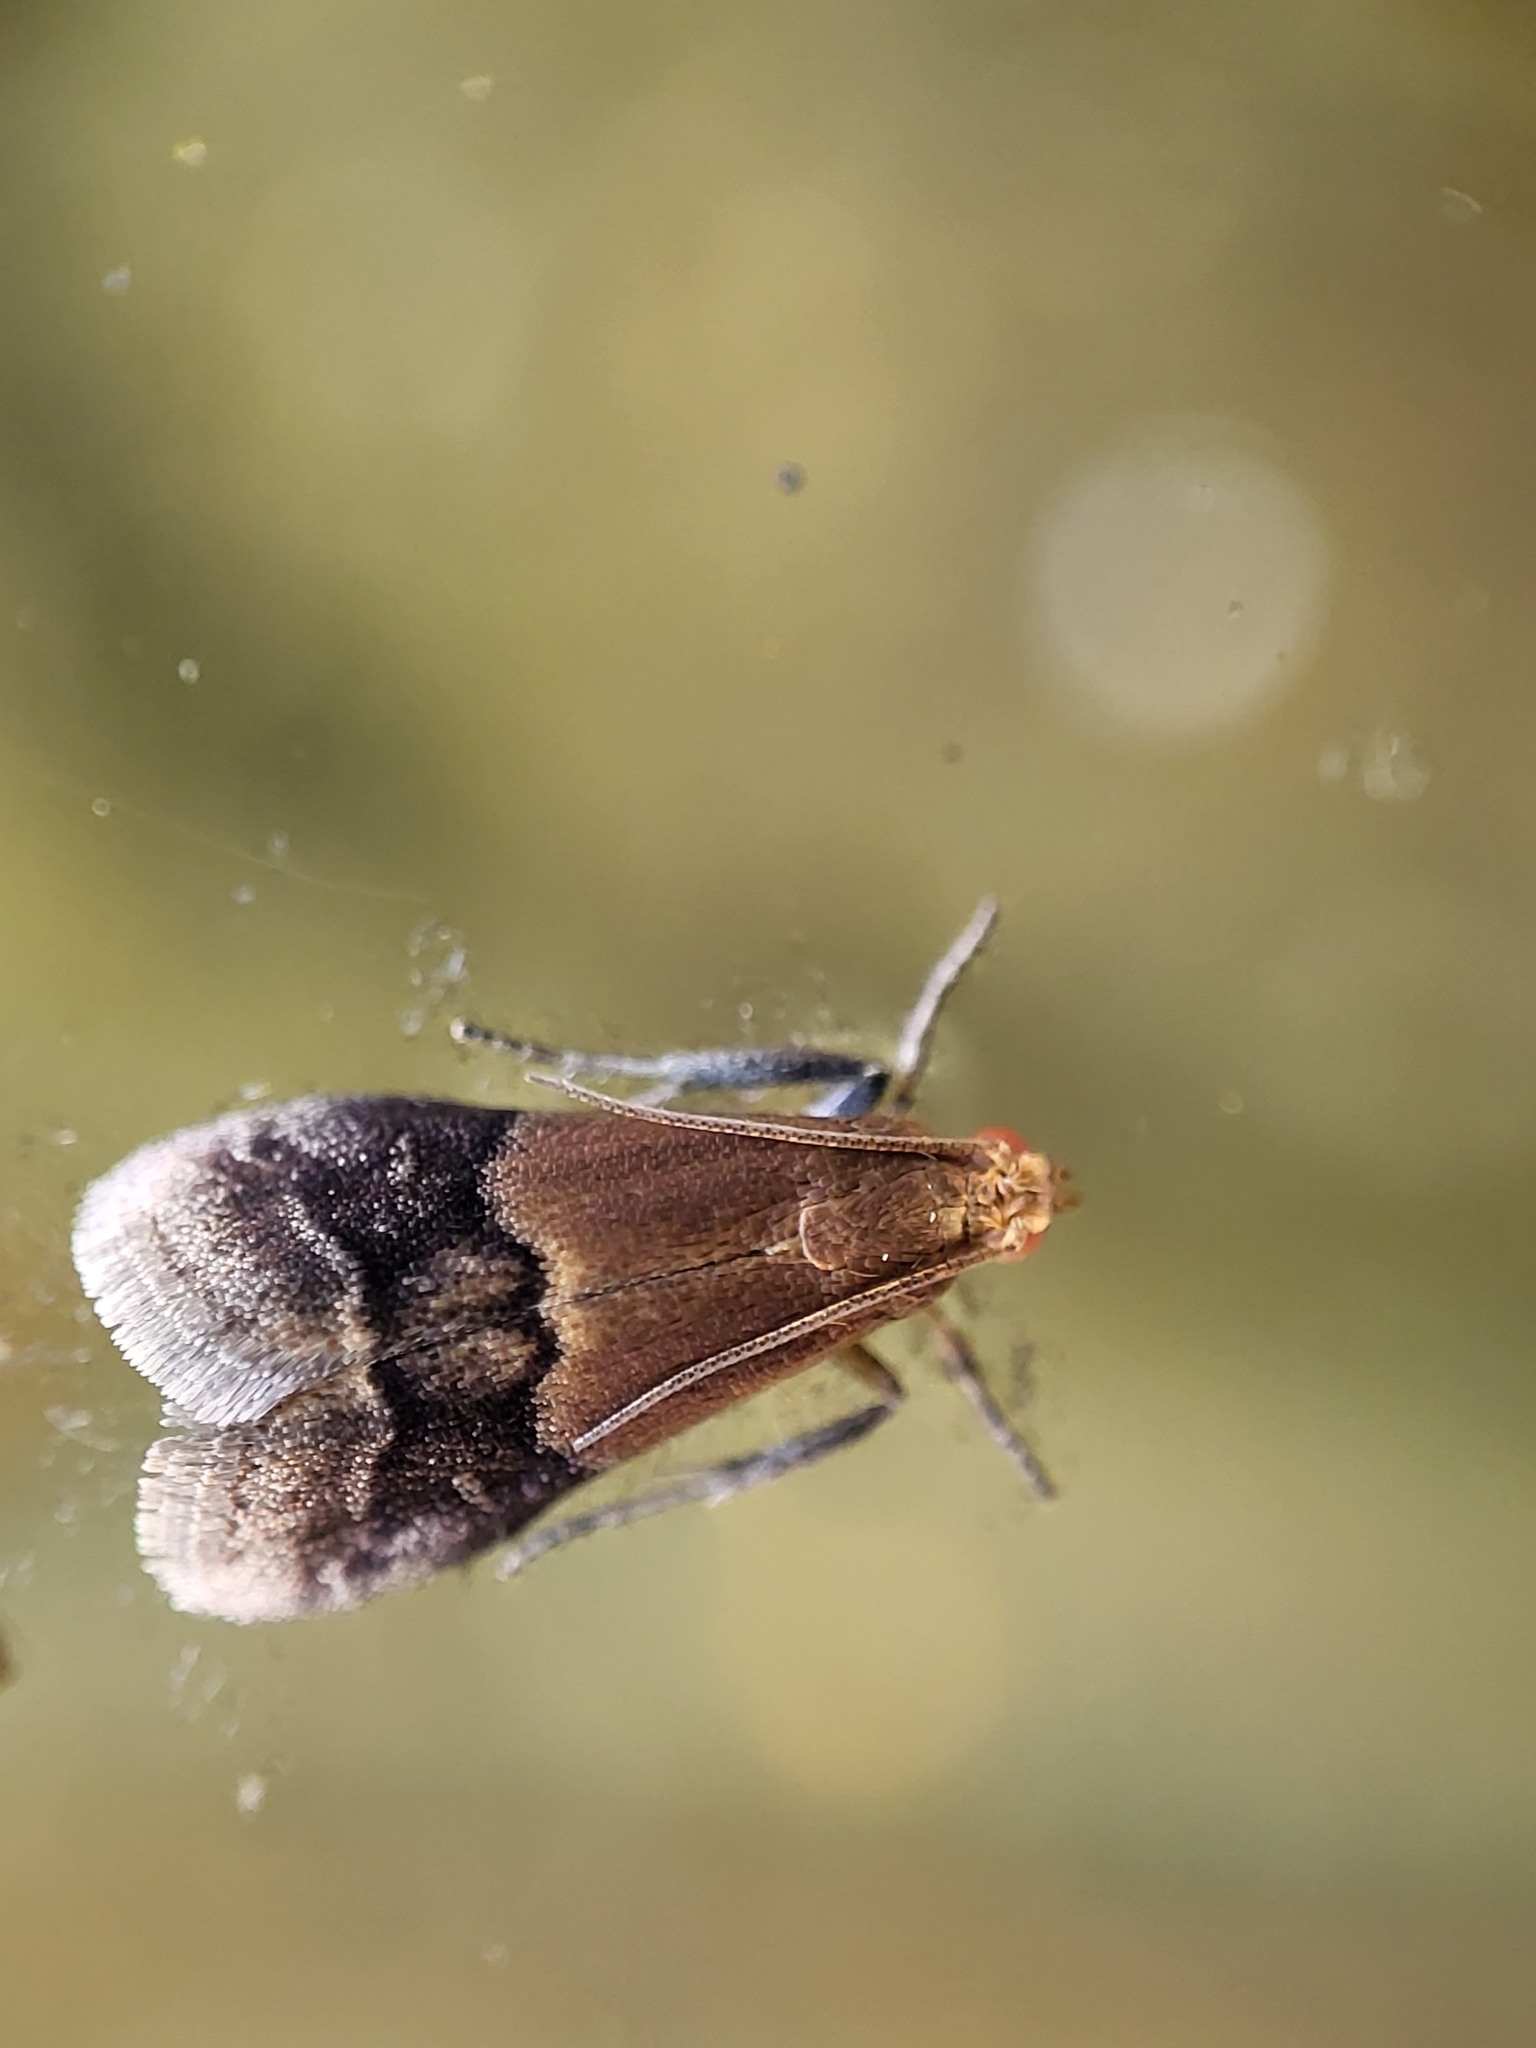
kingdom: Animalia
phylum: Arthropoda
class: Insecta
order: Lepidoptera
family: Pyralidae
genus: Eulogia
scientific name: Eulogia ochrifrontella
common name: Broad-banded eulogia moth
